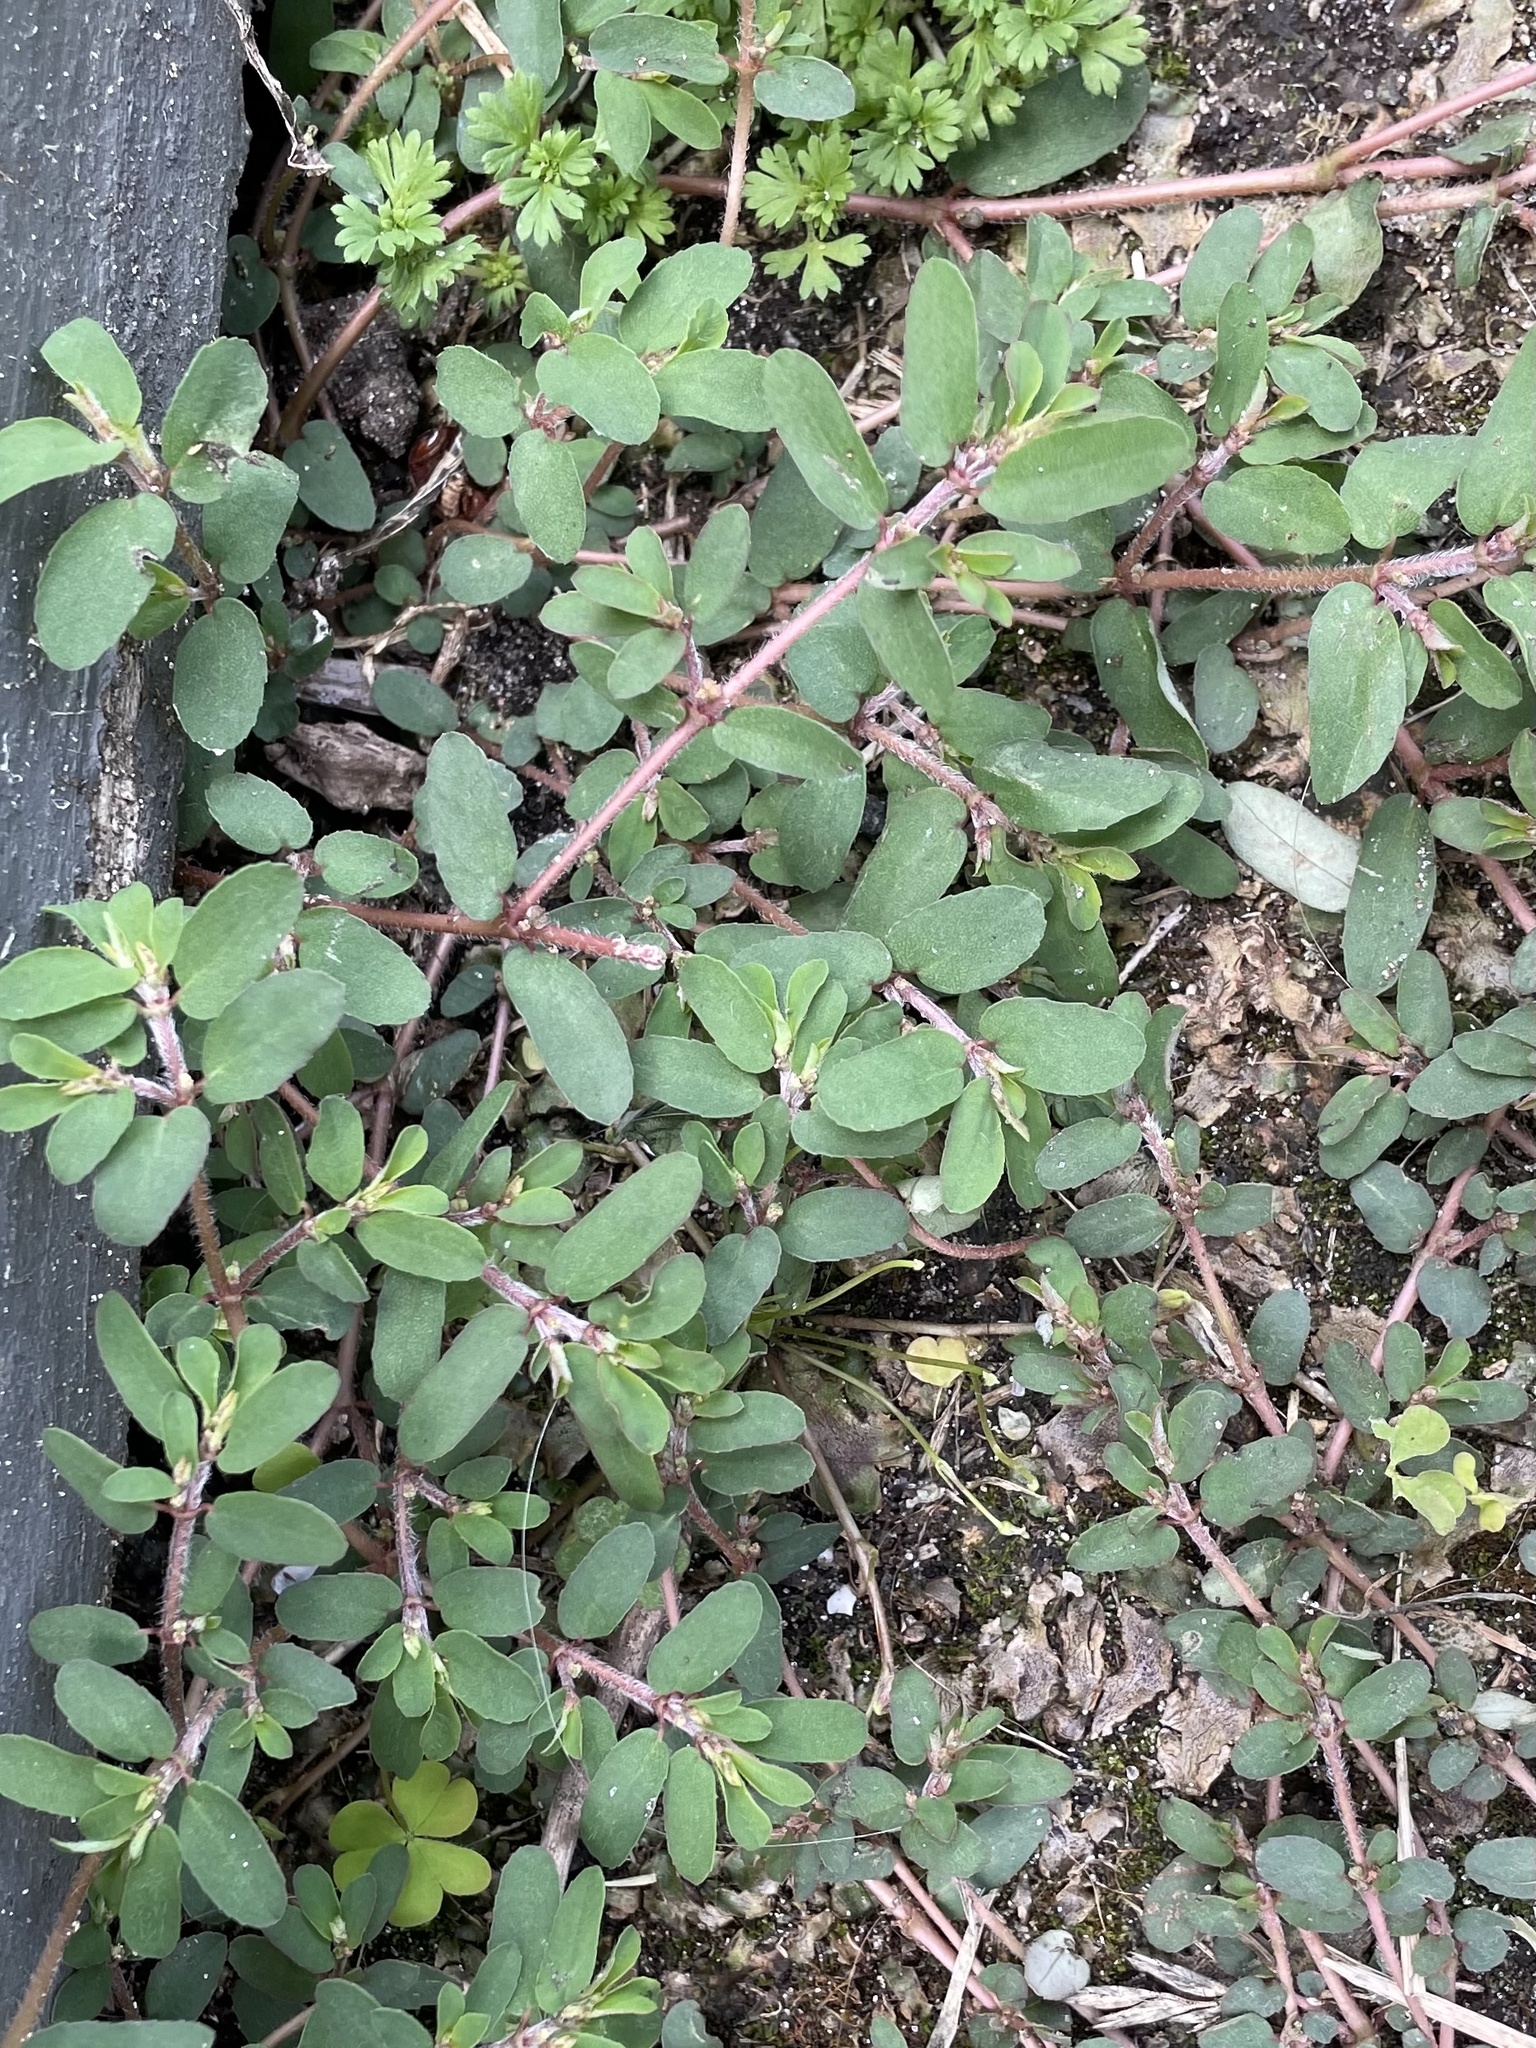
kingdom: Plantae
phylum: Tracheophyta
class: Magnoliopsida
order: Malpighiales
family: Euphorbiaceae
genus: Euphorbia
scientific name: Euphorbia maculata
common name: Spotted spurge
